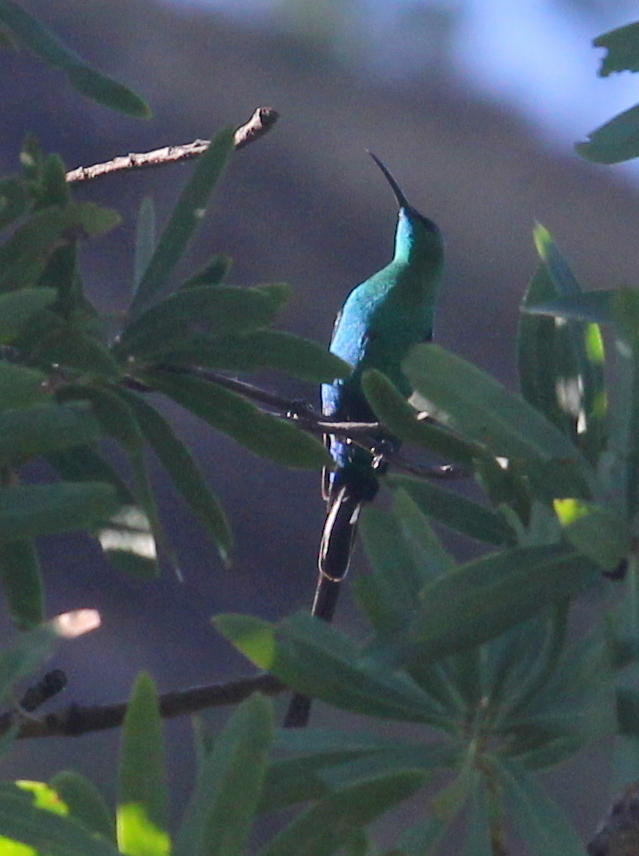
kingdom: Animalia
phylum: Chordata
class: Aves
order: Passeriformes
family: Nectariniidae
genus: Nectarinia
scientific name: Nectarinia famosa
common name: Malachite sunbird
